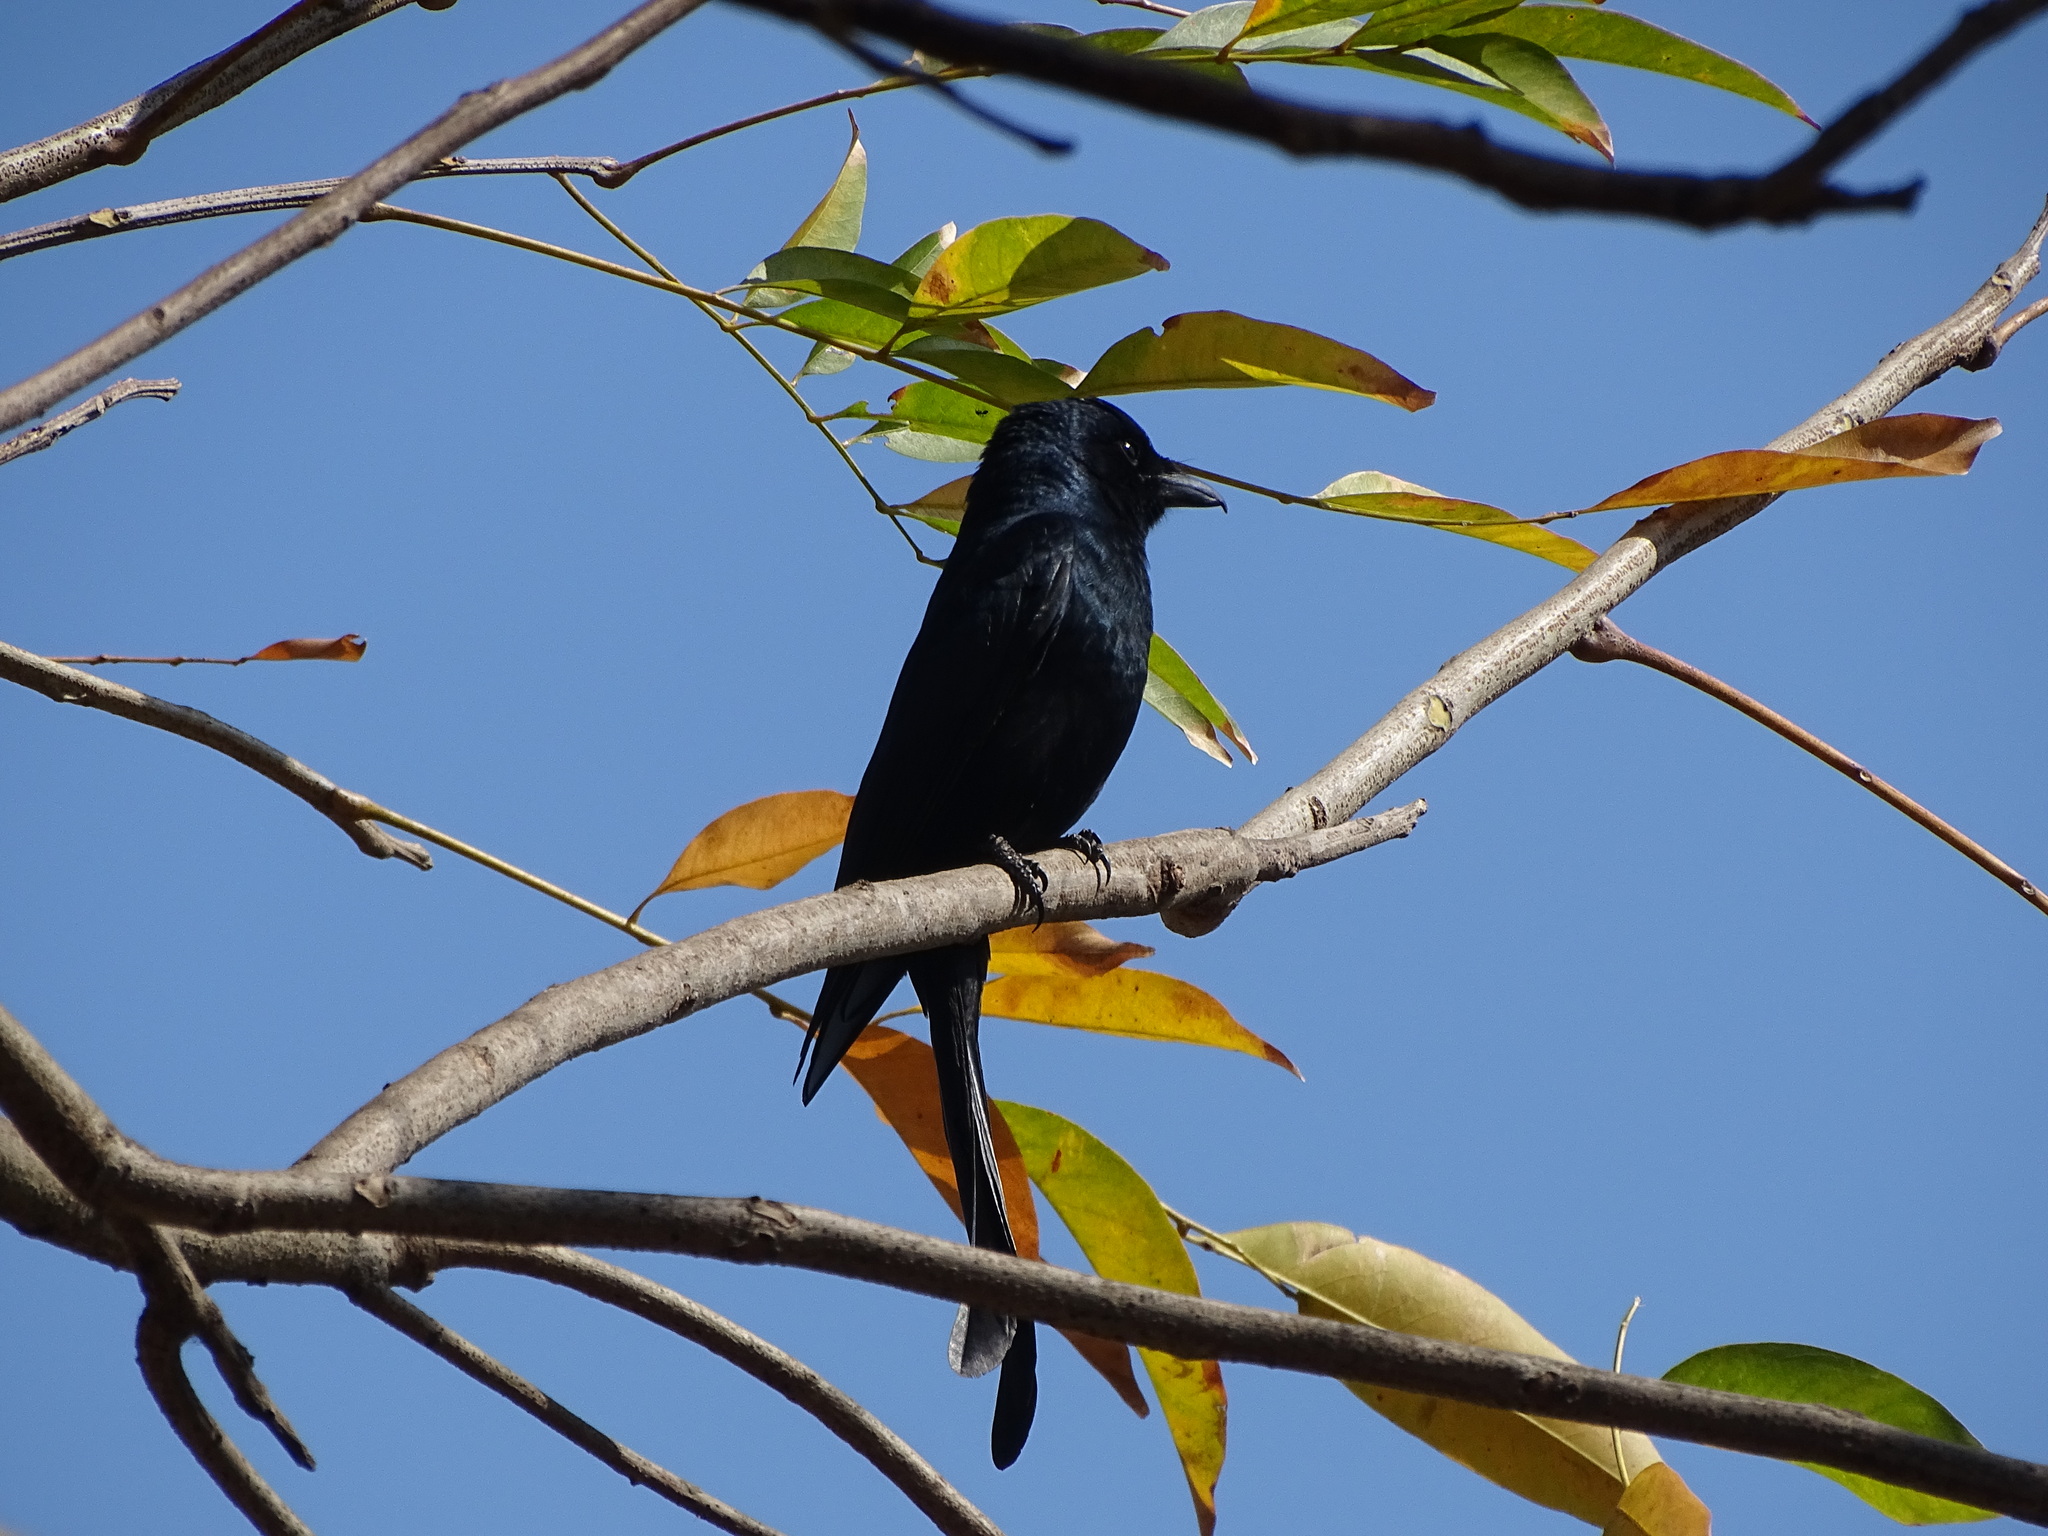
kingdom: Animalia
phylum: Chordata
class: Aves
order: Passeriformes
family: Dicruridae
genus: Dicrurus
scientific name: Dicrurus macrocercus
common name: Black drongo
